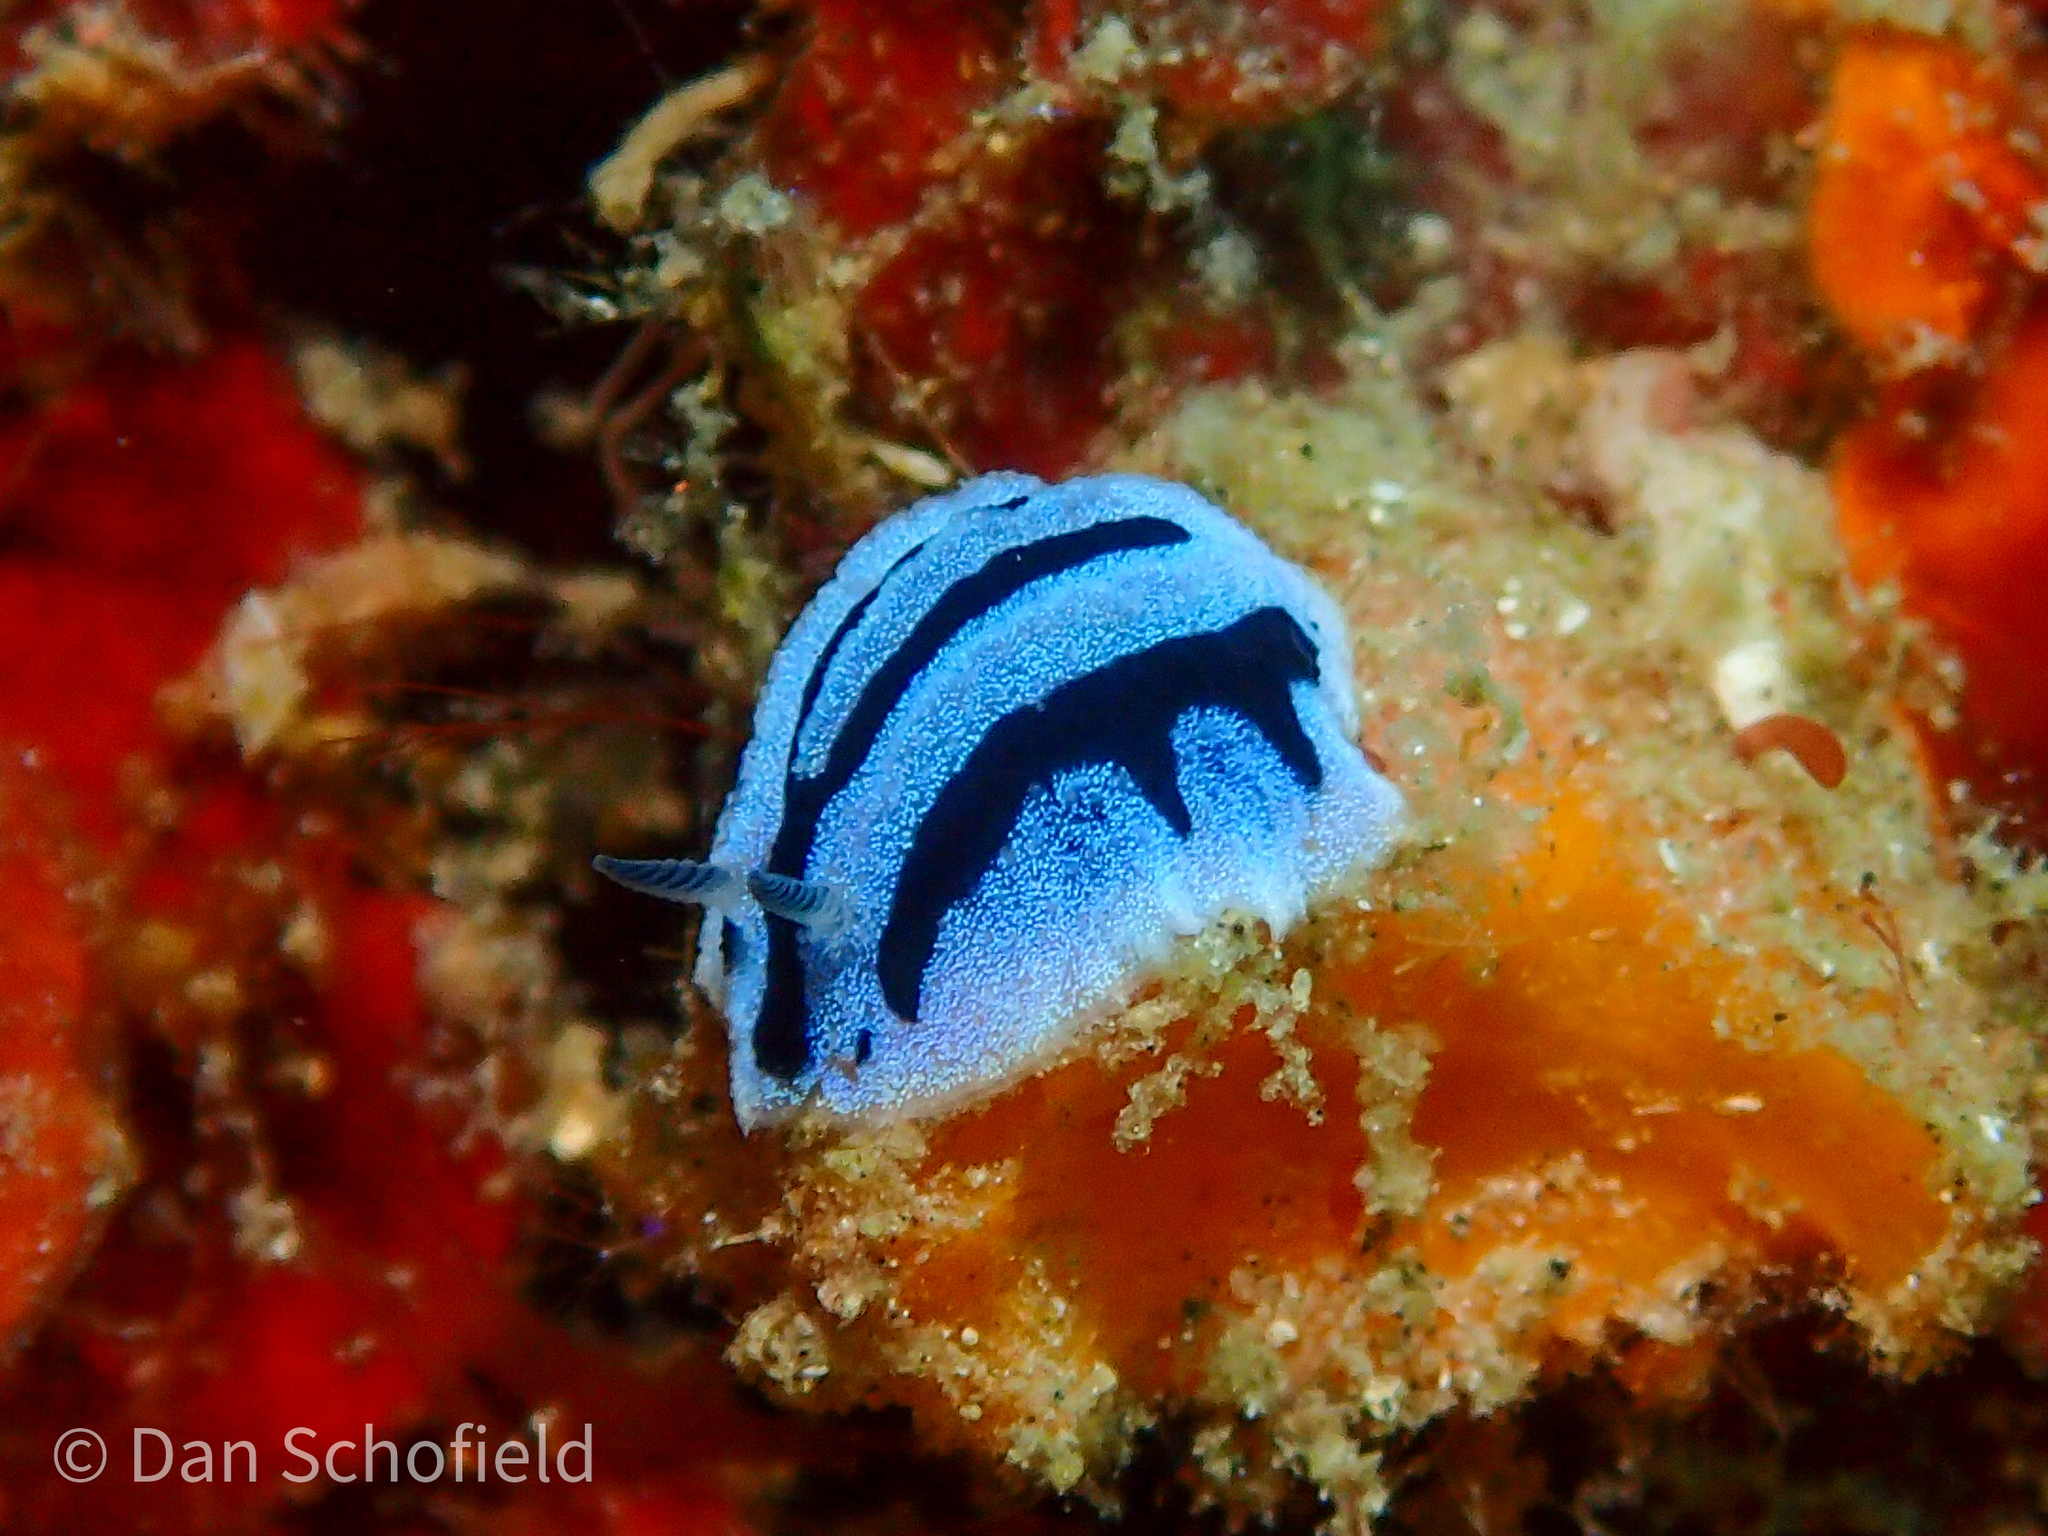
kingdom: Animalia
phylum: Mollusca
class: Gastropoda
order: Nudibranchia
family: Phyllidiidae
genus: Phyllidiopsis
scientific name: Phyllidiopsis annae
